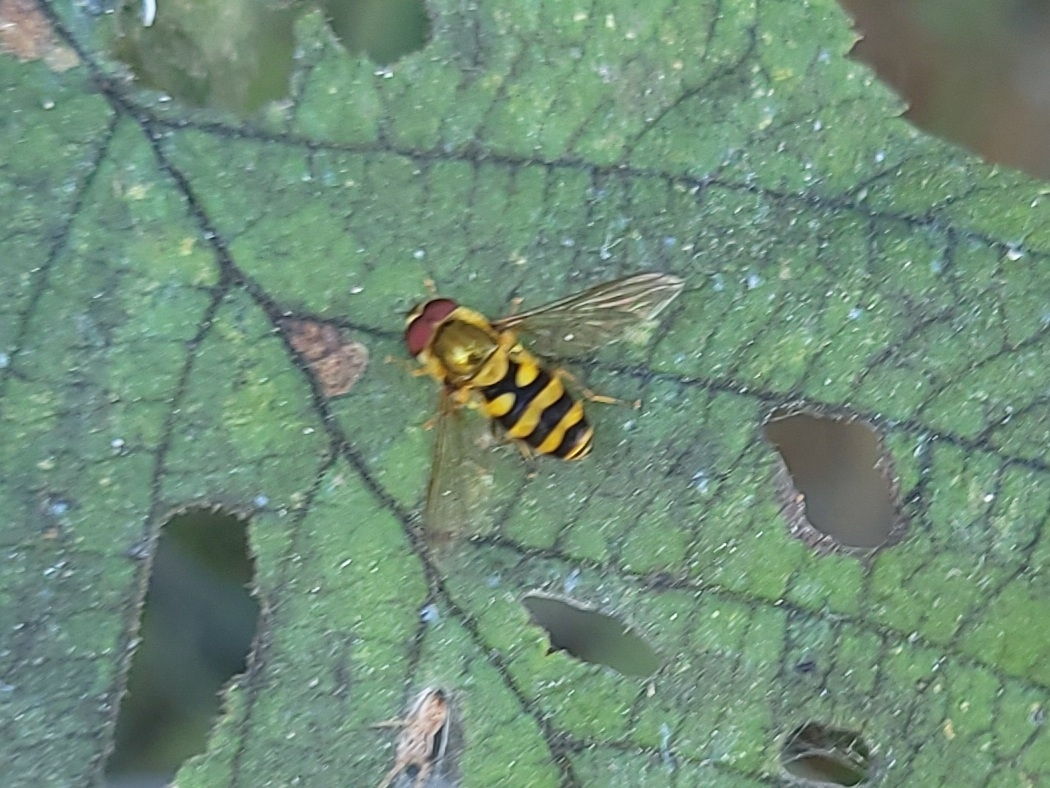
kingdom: Animalia
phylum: Arthropoda
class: Insecta
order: Diptera
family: Syrphidae
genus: Syrphus
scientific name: Syrphus
